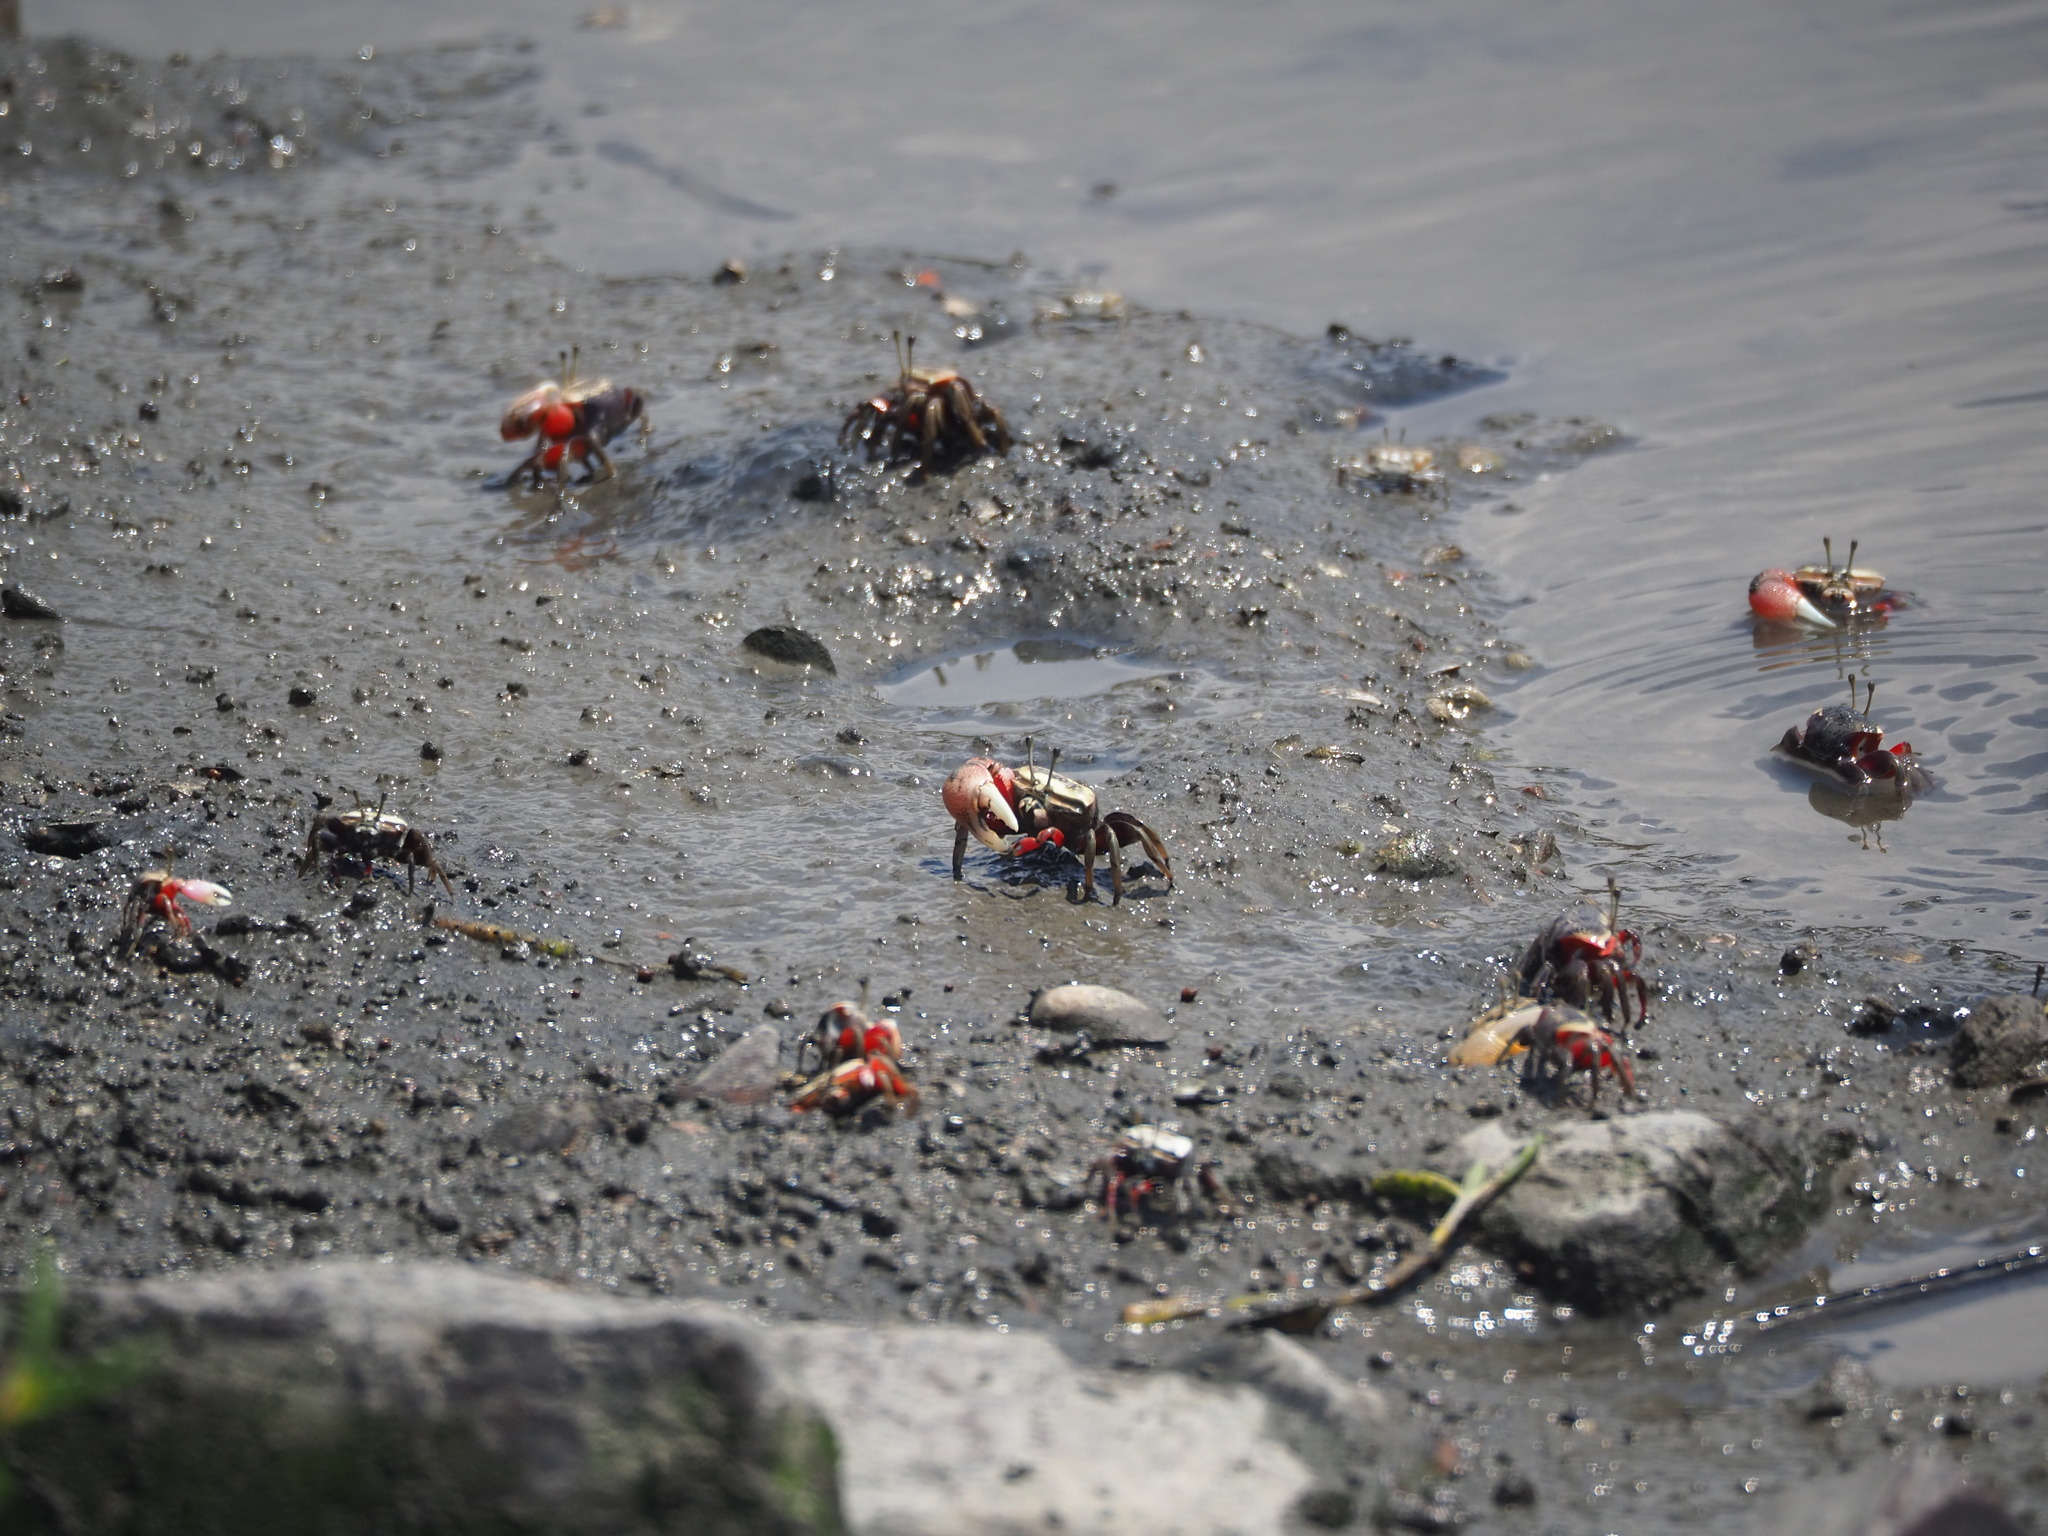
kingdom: Animalia
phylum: Arthropoda
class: Malacostraca
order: Decapoda
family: Ocypodidae
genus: Tubuca
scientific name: Tubuca arcuata
